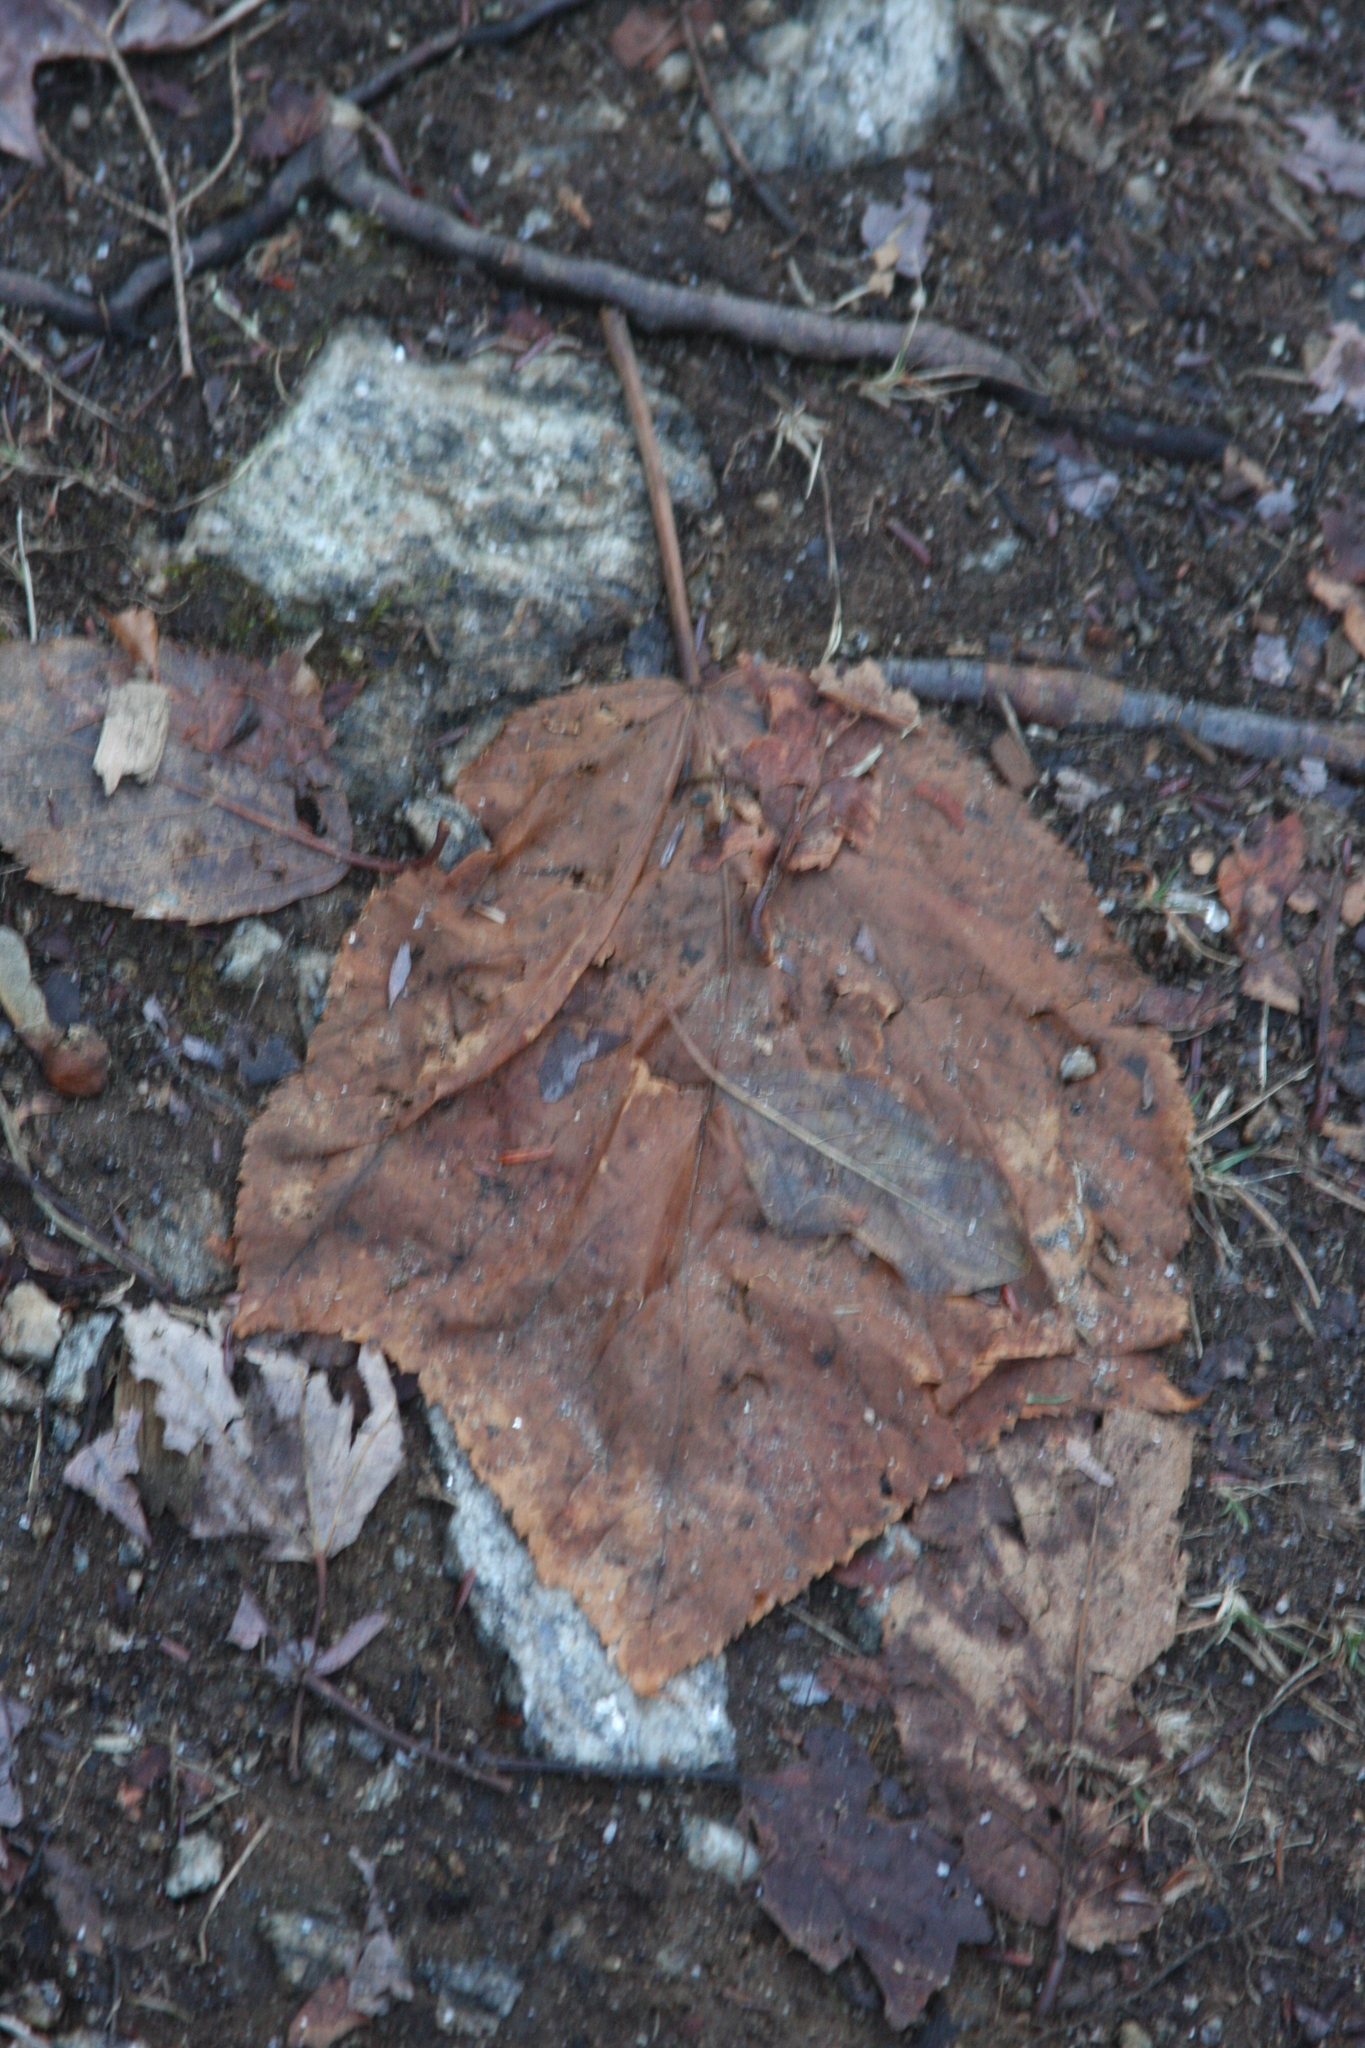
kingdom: Plantae
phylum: Tracheophyta
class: Magnoliopsida
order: Sapindales
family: Sapindaceae
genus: Acer
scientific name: Acer pensylvanicum
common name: Moosewood
